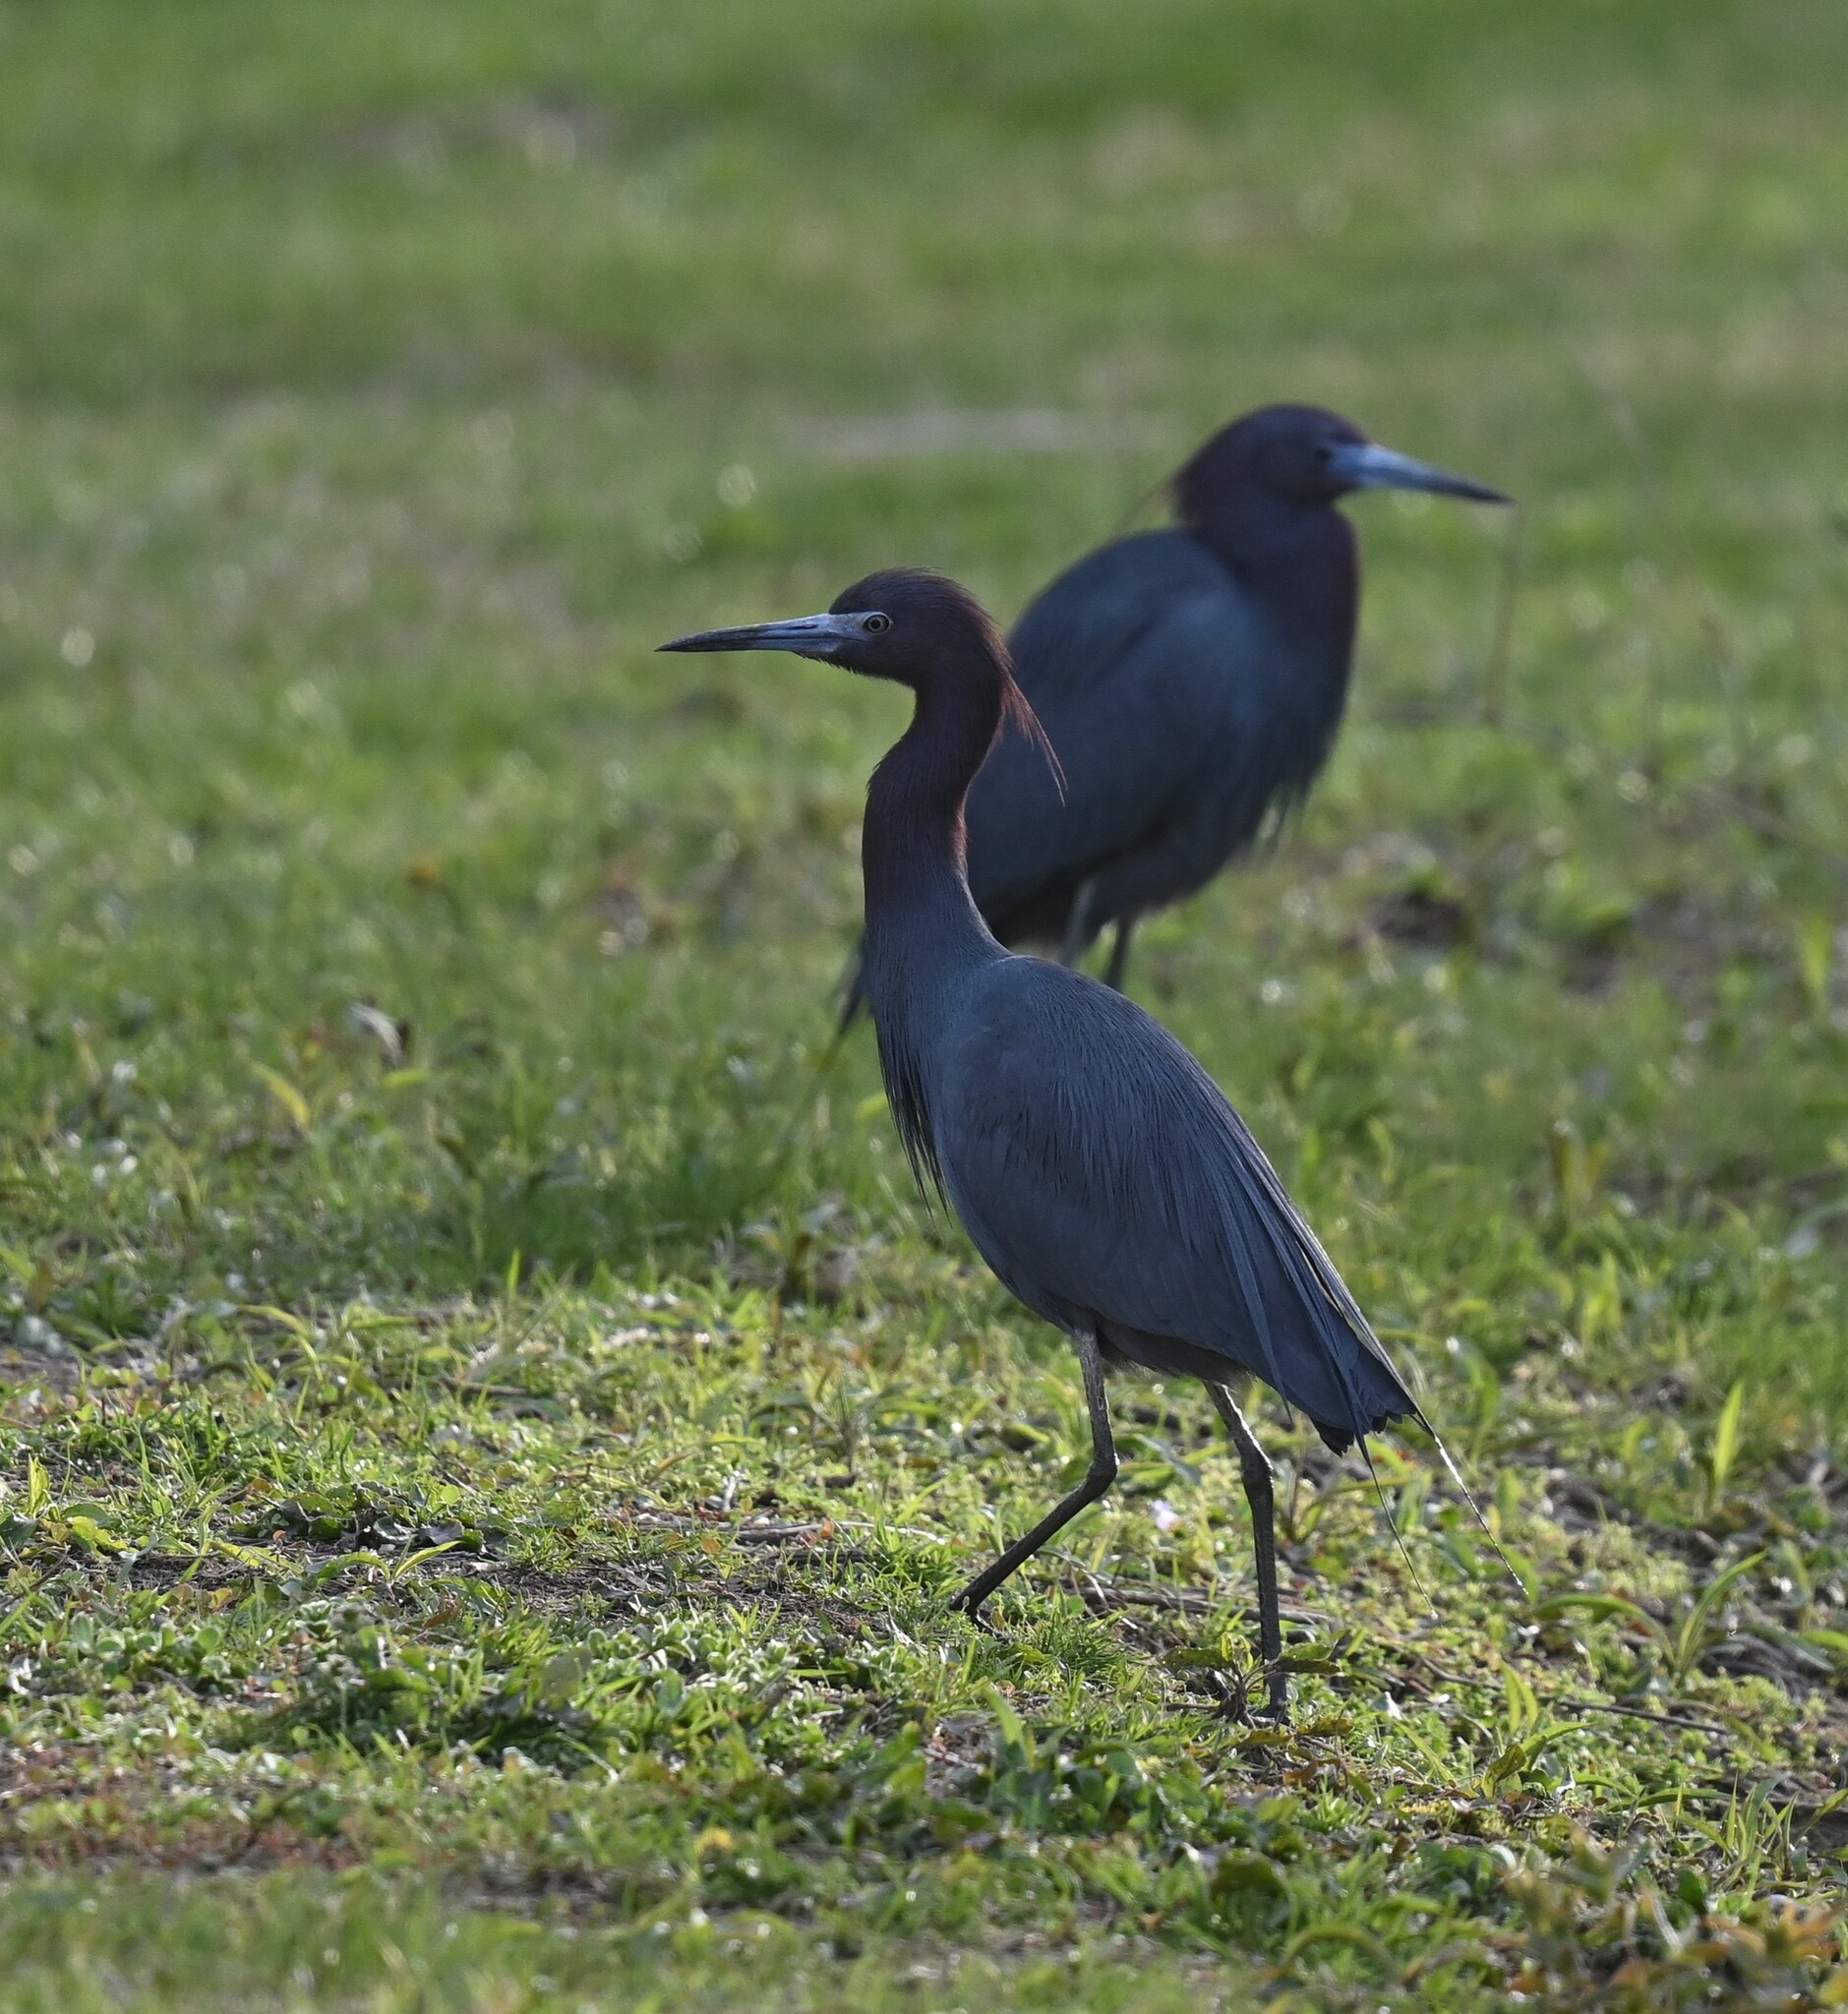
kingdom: Animalia
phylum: Chordata
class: Aves
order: Pelecaniformes
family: Ardeidae
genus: Egretta
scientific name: Egretta caerulea
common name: Little blue heron
